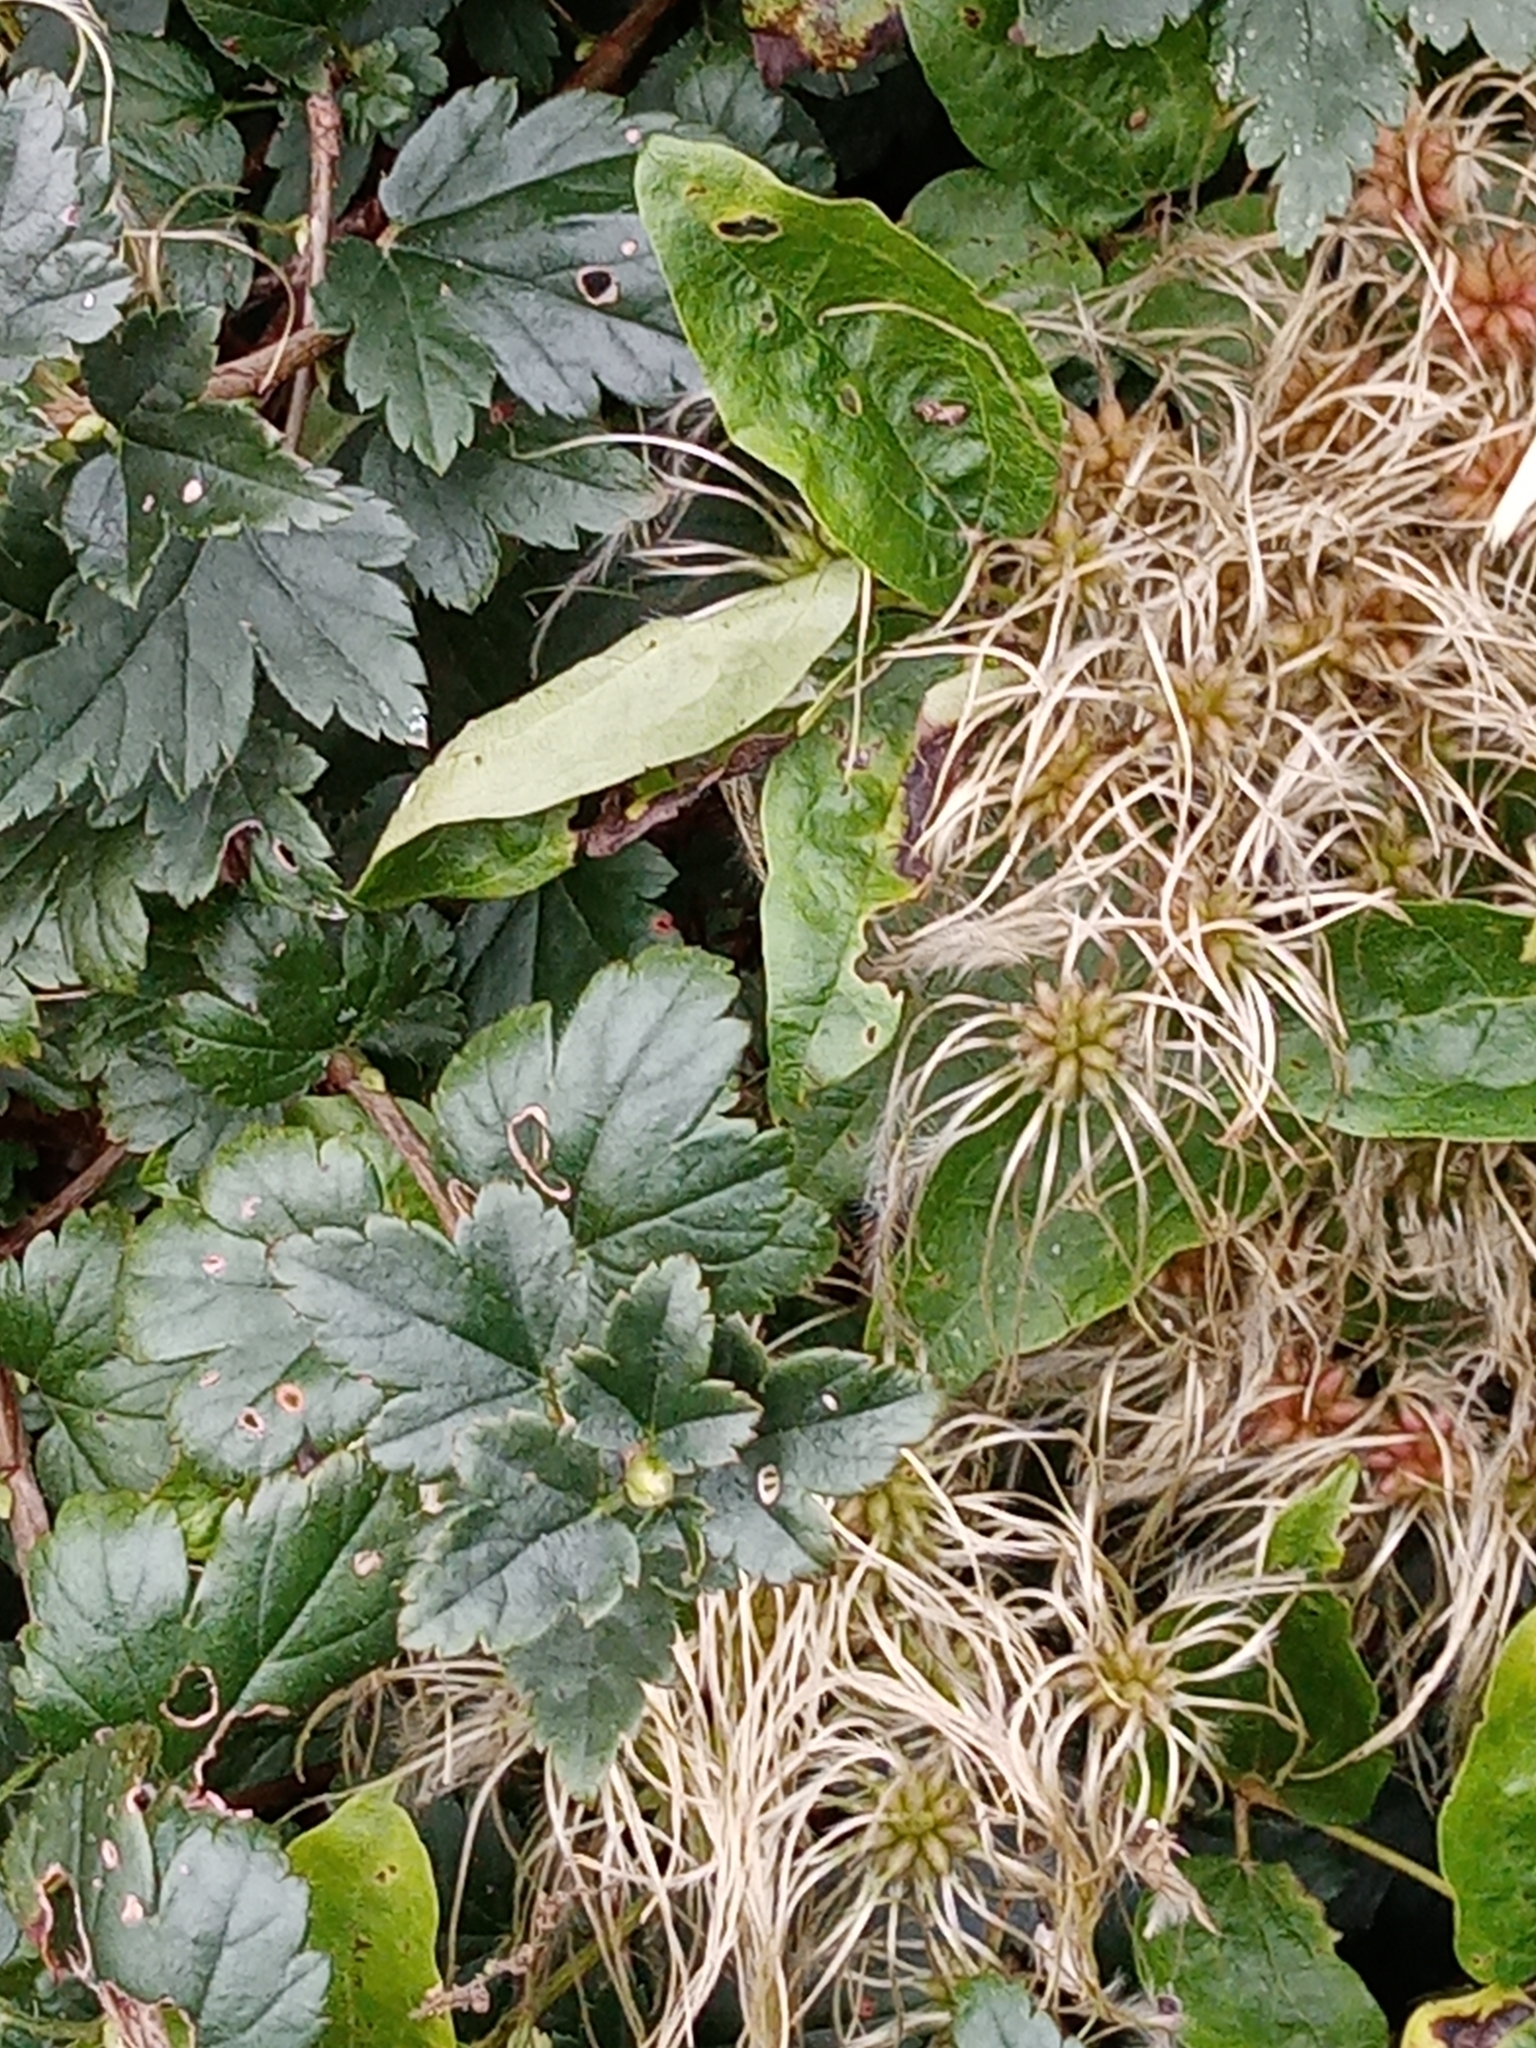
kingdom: Plantae
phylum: Tracheophyta
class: Magnoliopsida
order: Ranunculales
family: Ranunculaceae
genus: Clematis
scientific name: Clematis vitalba
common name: Evergreen clematis
